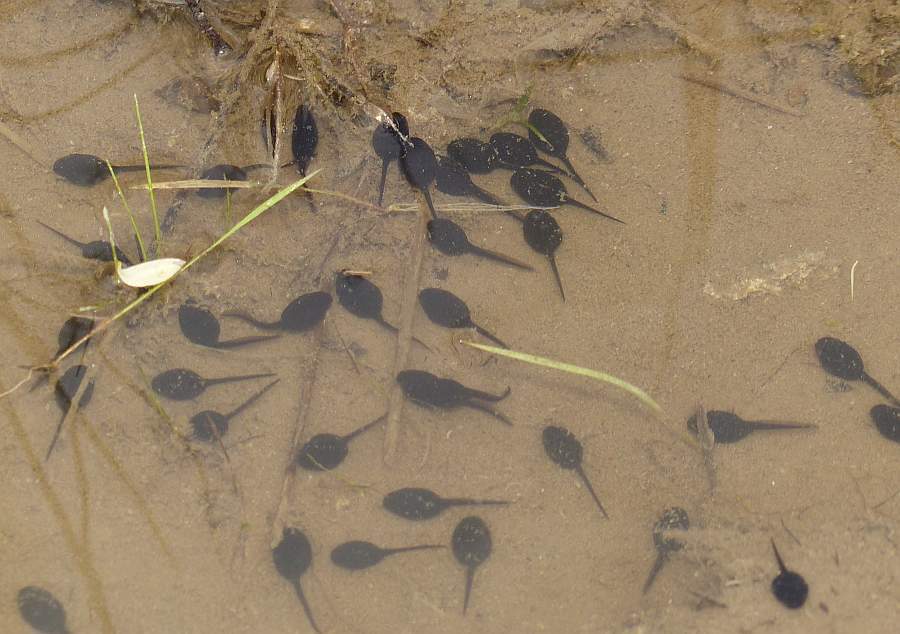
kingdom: Animalia
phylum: Chordata
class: Amphibia
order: Anura
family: Bufonidae
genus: Anaxyrus
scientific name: Anaxyrus americanus
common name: American toad
